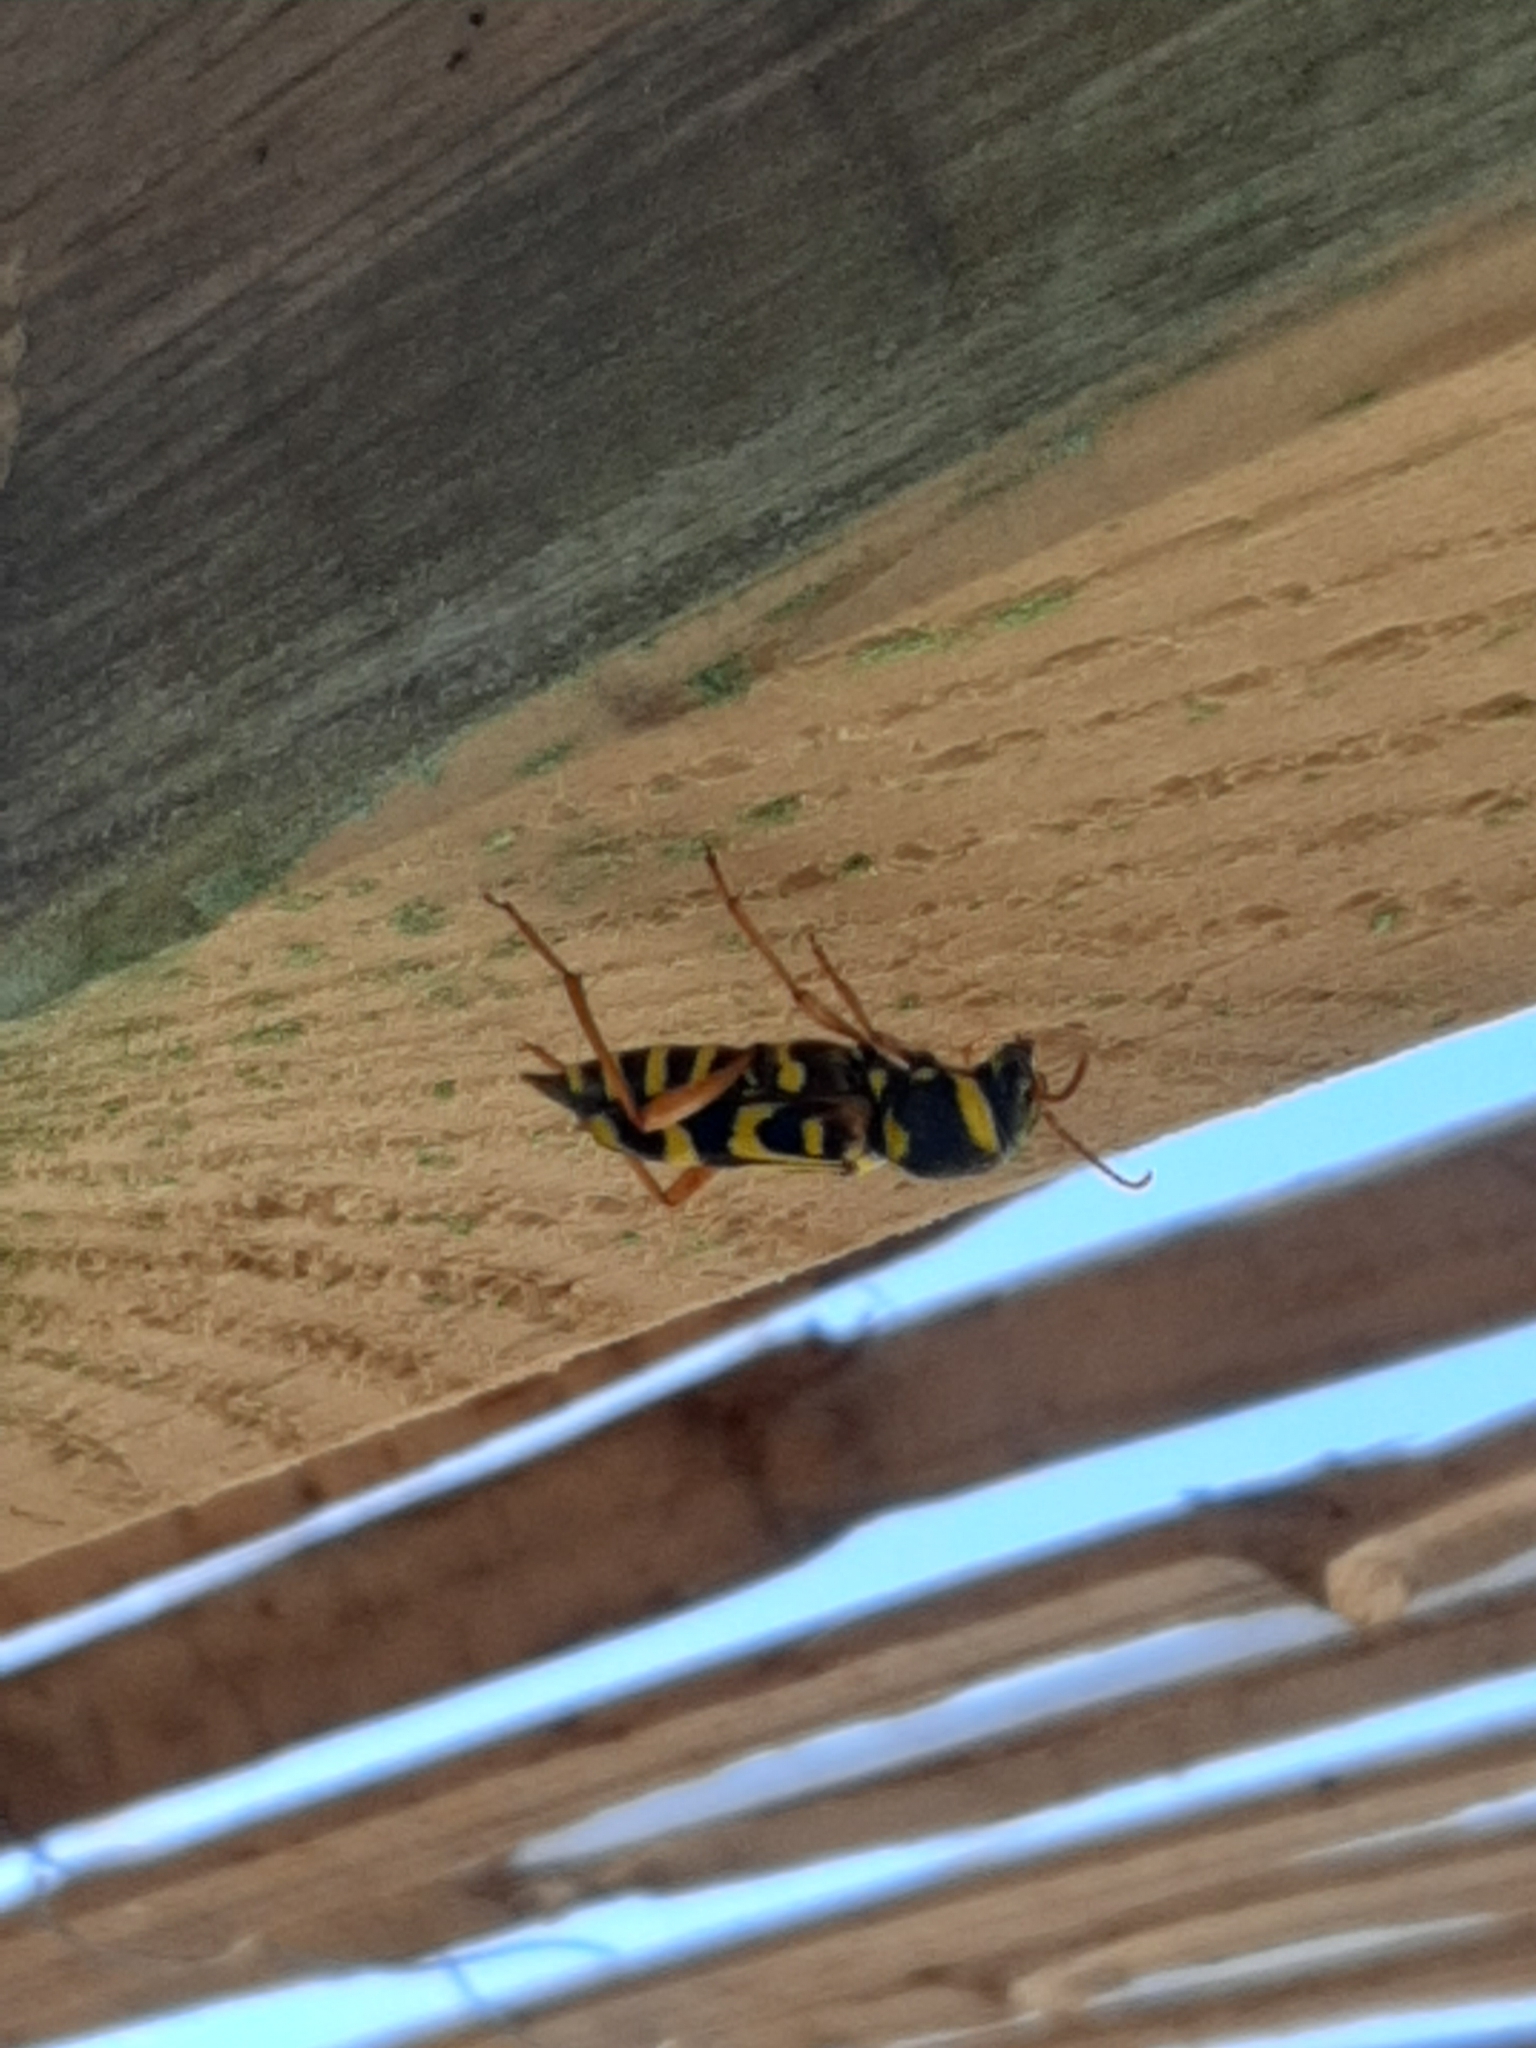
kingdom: Animalia
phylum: Arthropoda
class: Insecta
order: Coleoptera
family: Cerambycidae
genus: Xylotrechus
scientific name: Xylotrechus arvicola
